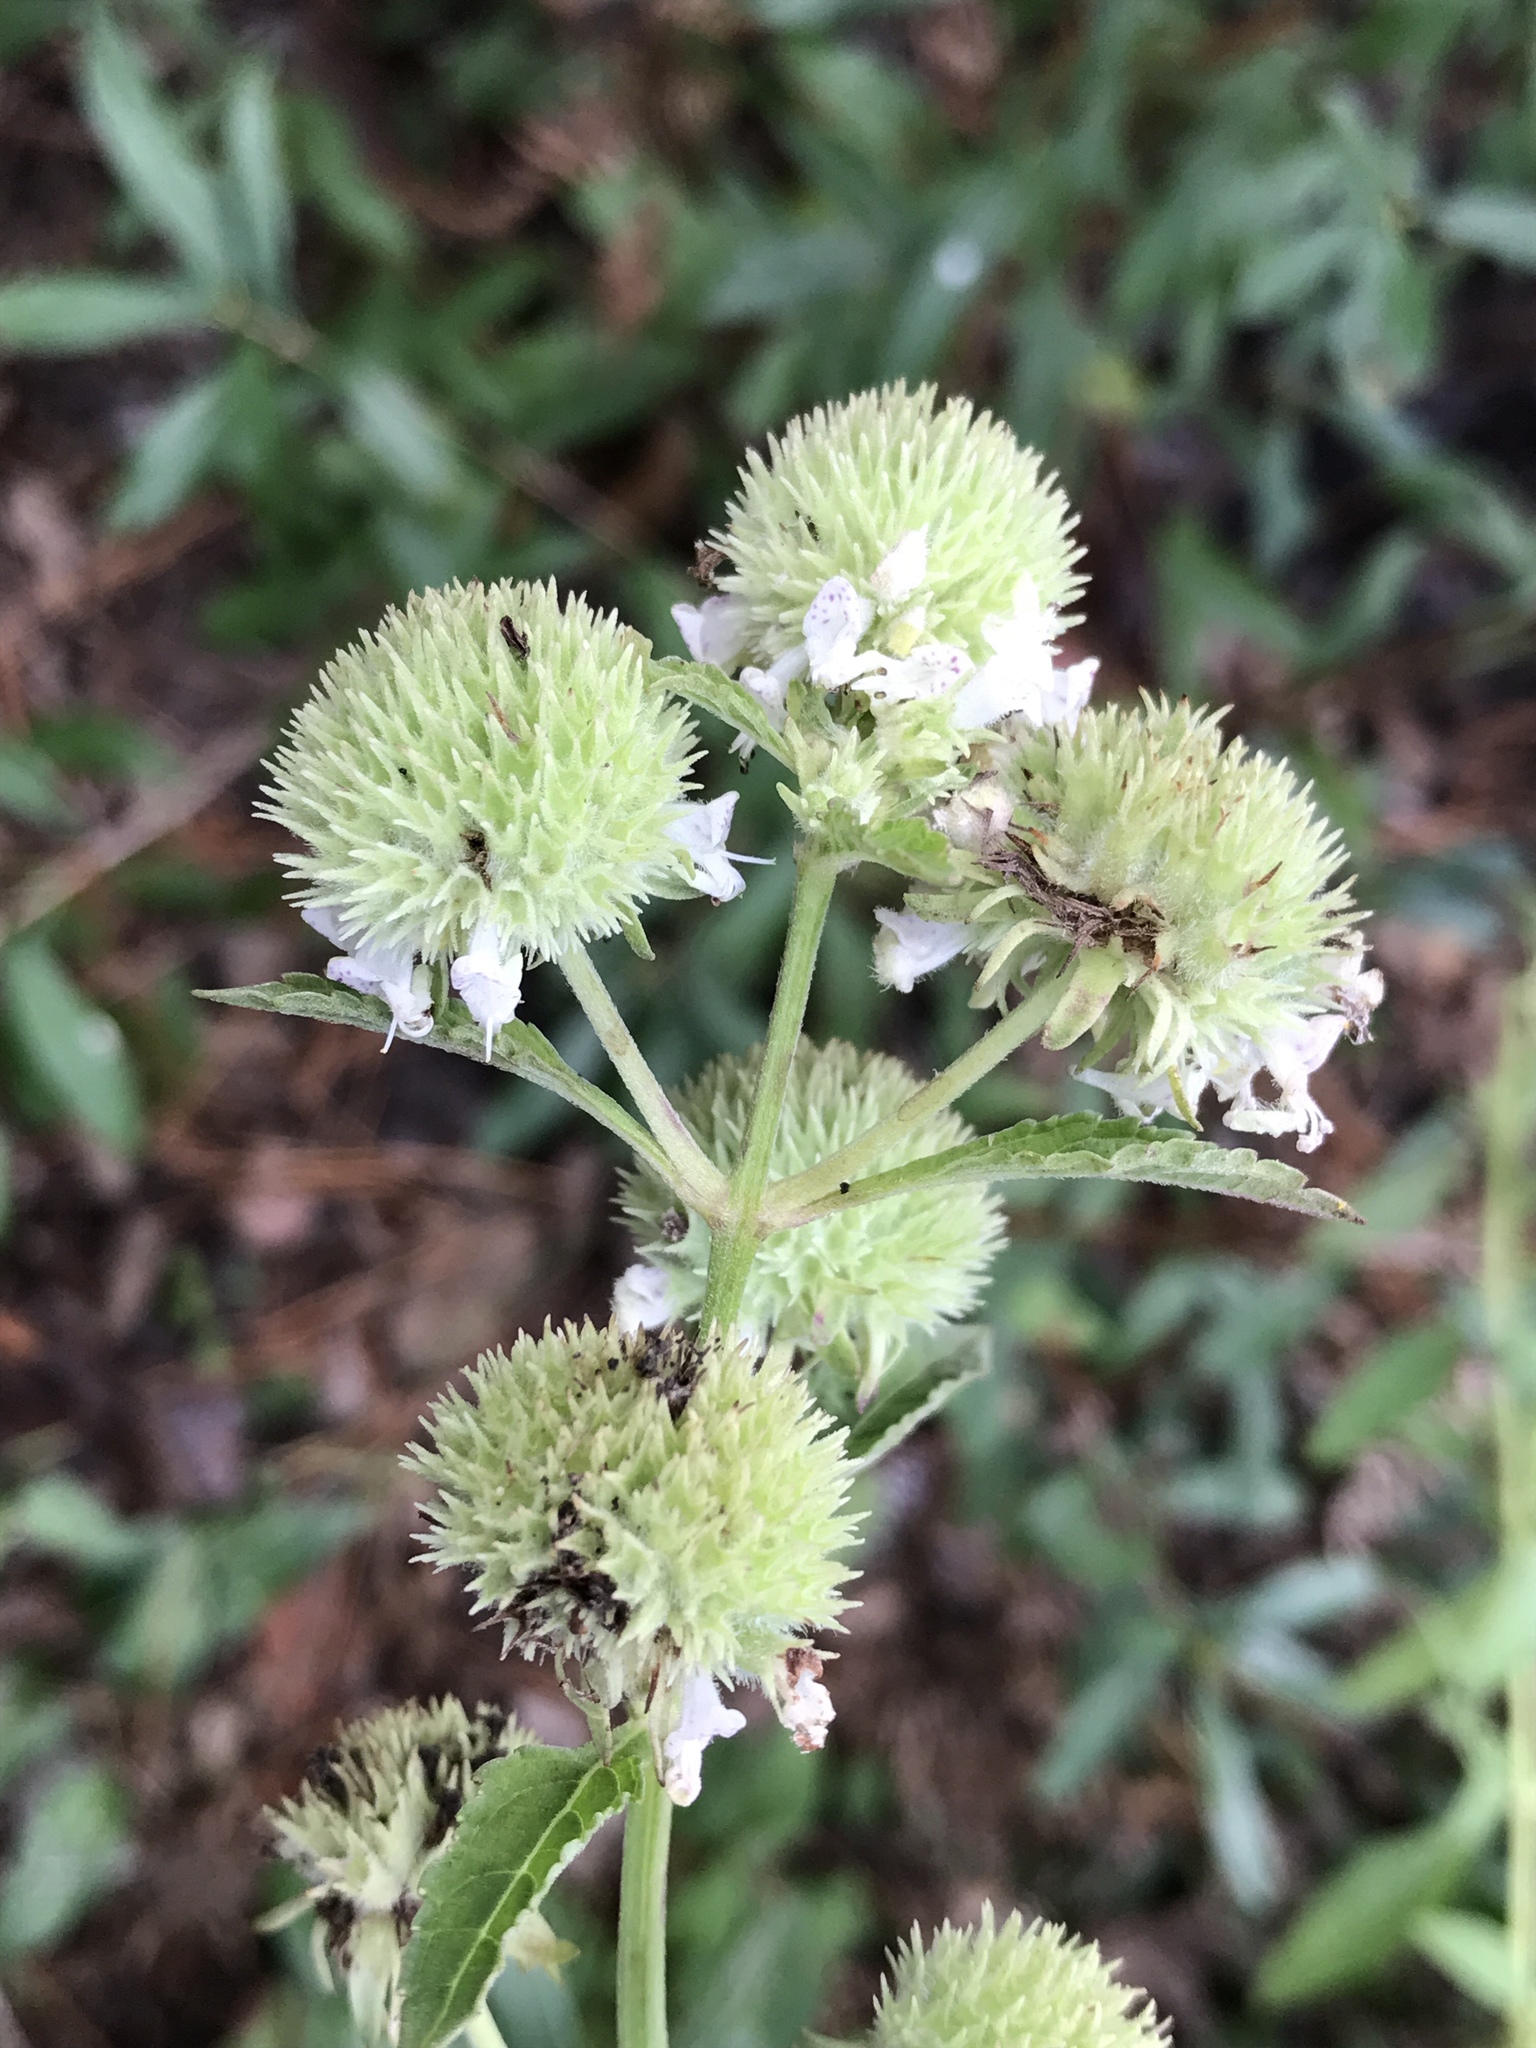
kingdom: Plantae
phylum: Tracheophyta
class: Magnoliopsida
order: Lamiales
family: Lamiaceae
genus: Hyptis
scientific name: Hyptis alata
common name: Cluster bush-mint
